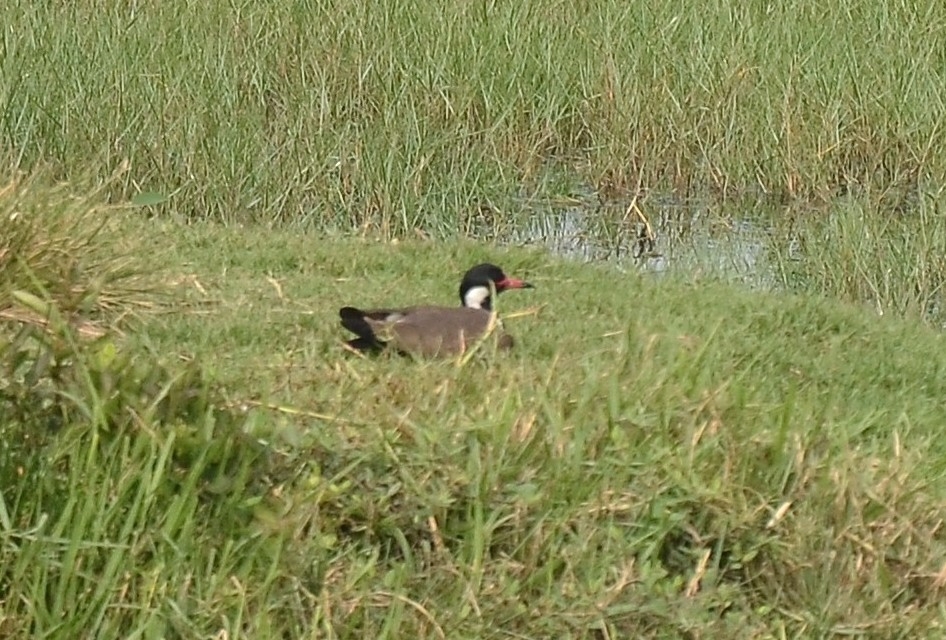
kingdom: Animalia
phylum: Chordata
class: Aves
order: Charadriiformes
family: Charadriidae
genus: Vanellus
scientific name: Vanellus indicus
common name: Red-wattled lapwing
